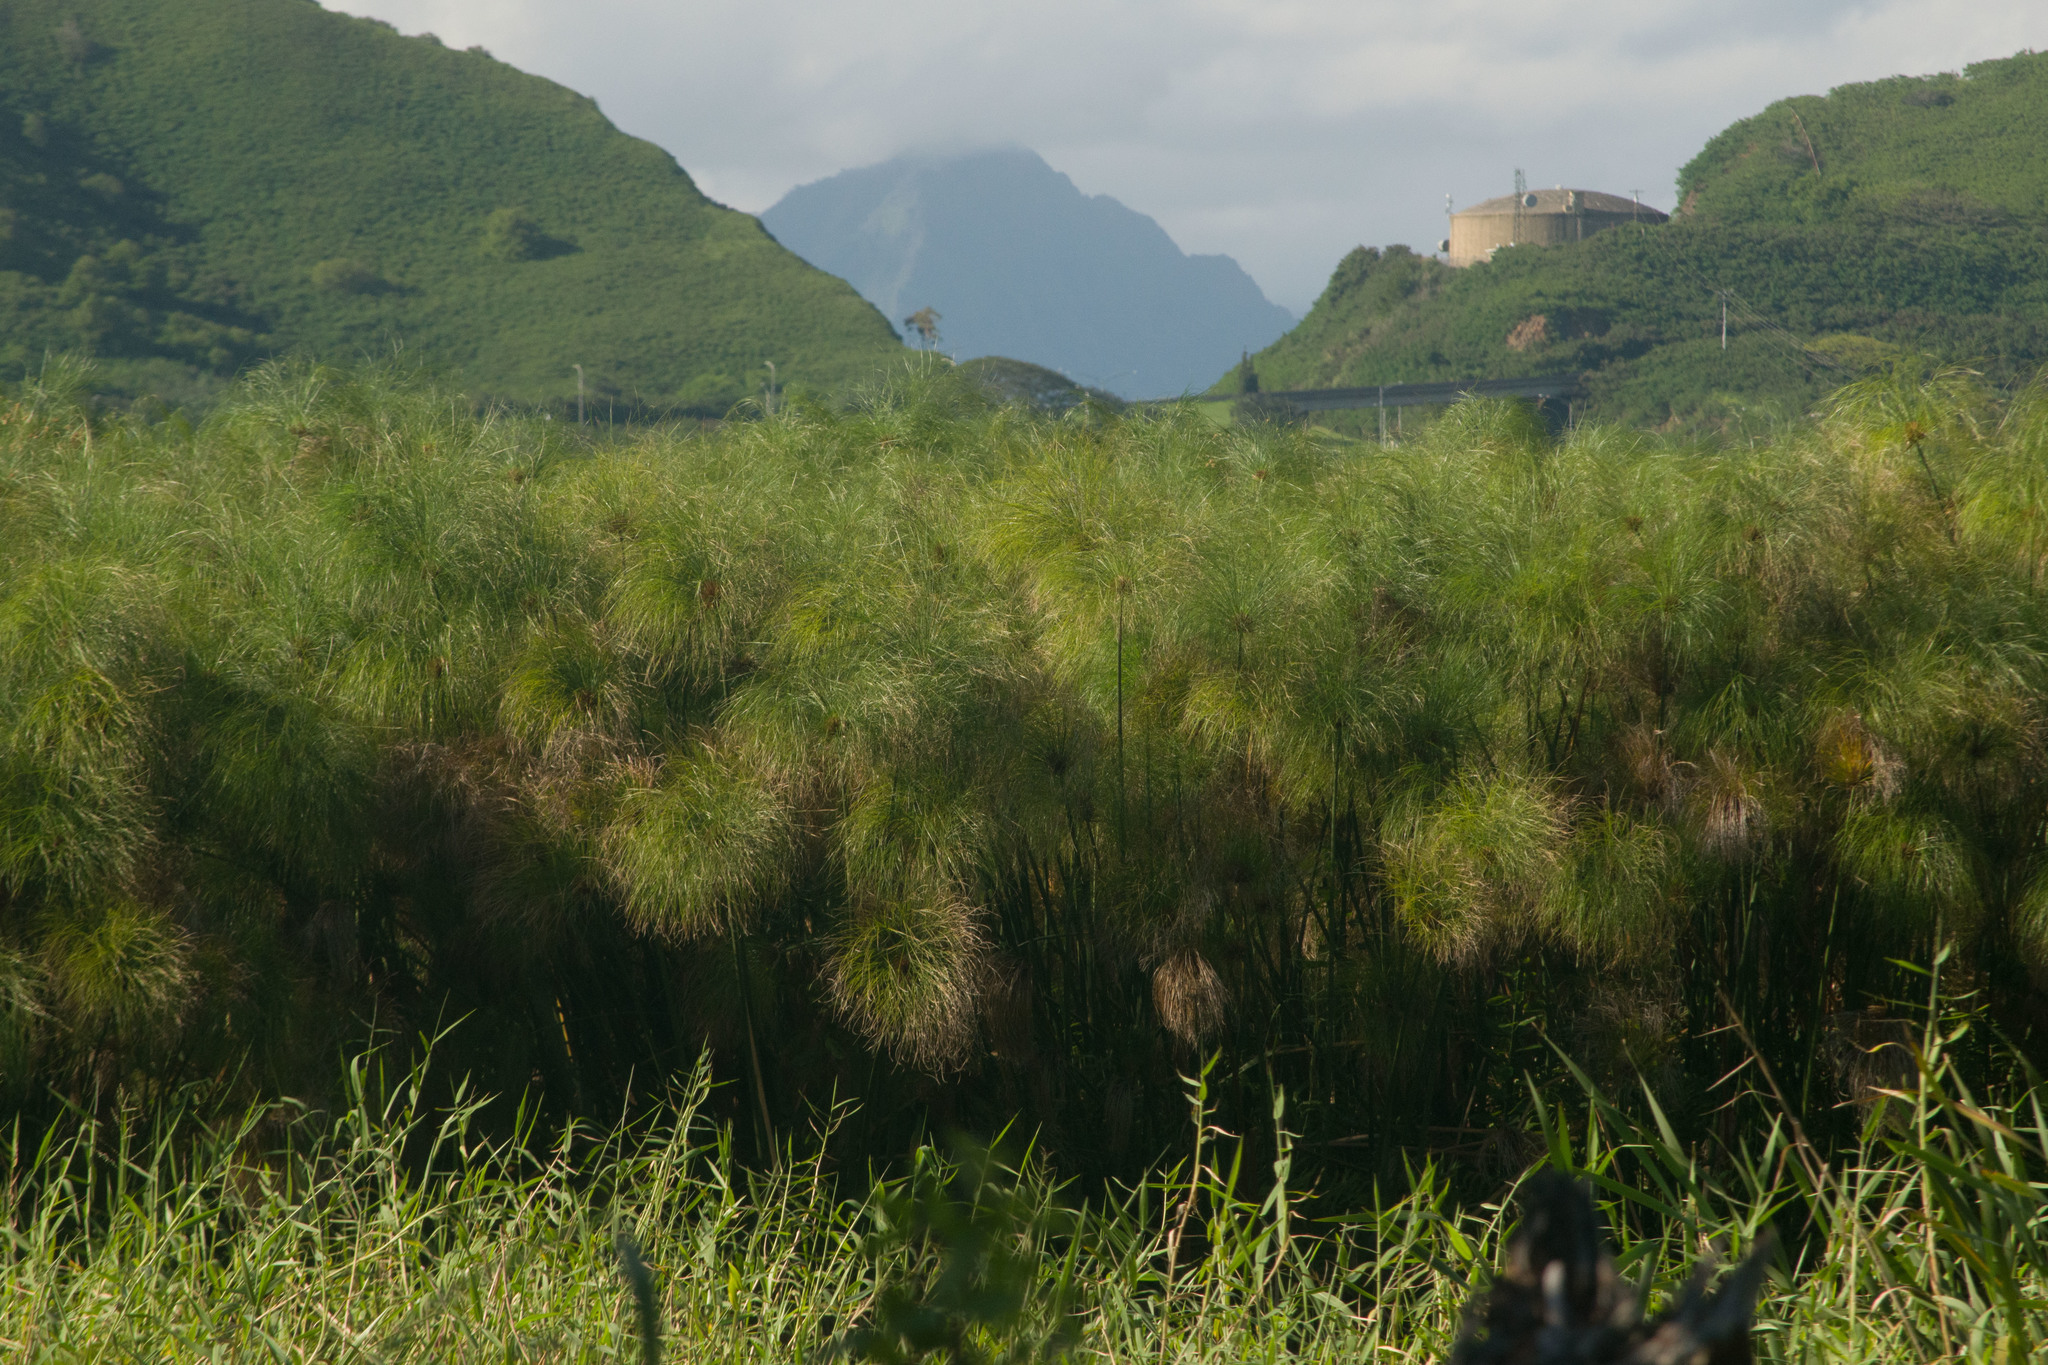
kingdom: Plantae
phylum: Tracheophyta
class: Liliopsida
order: Poales
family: Cyperaceae
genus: Cyperus
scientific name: Cyperus papyrus
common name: Papyrus
